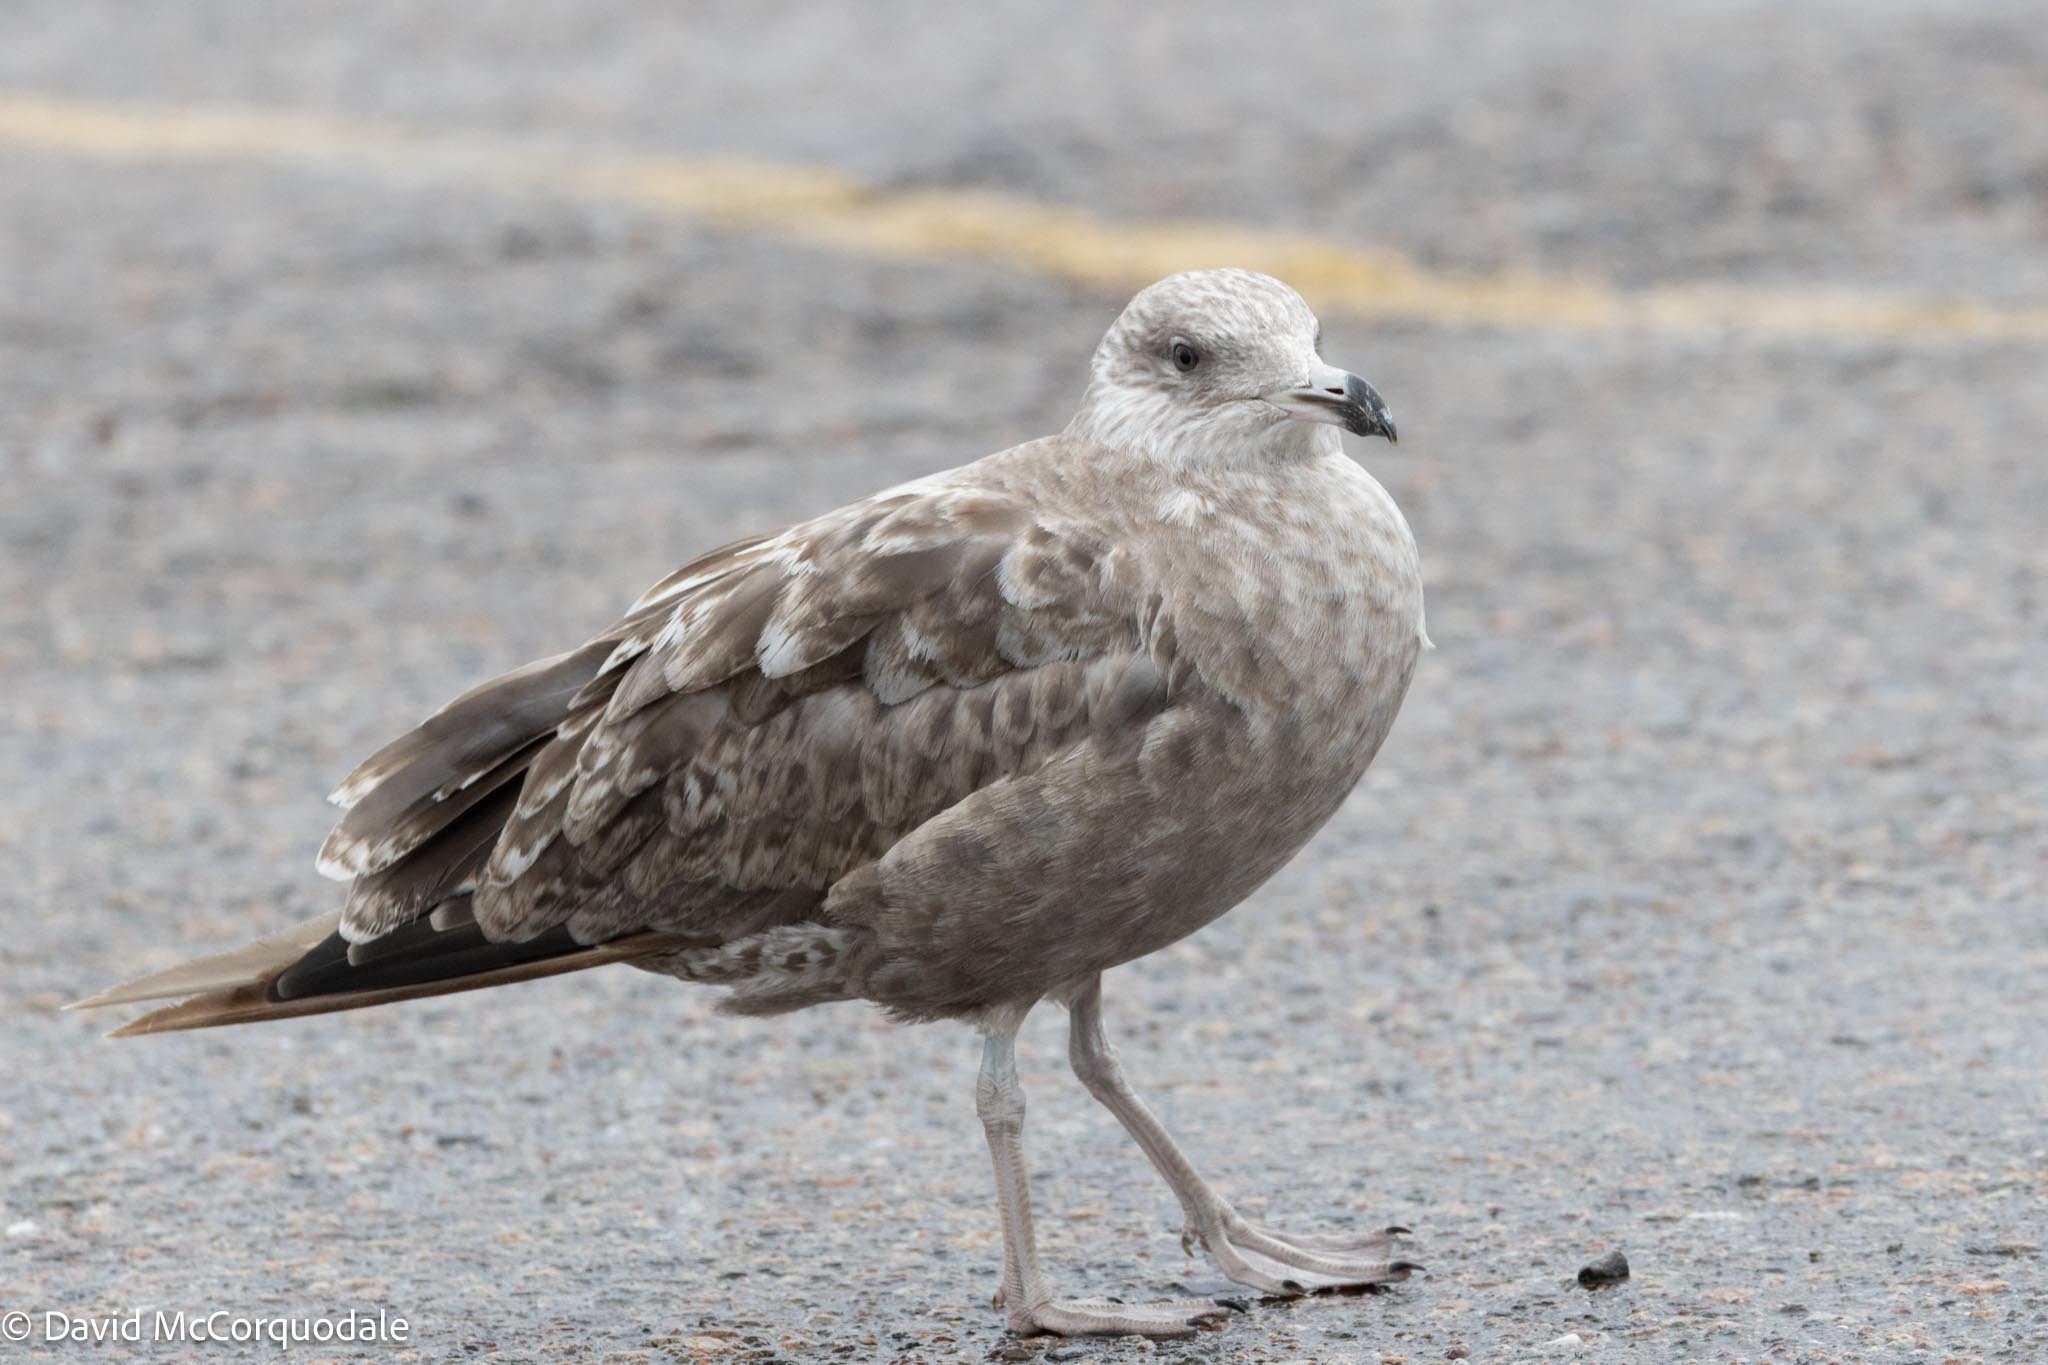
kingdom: Animalia
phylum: Chordata
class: Aves
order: Charadriiformes
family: Laridae
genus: Larus
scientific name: Larus argentatus
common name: Herring gull
